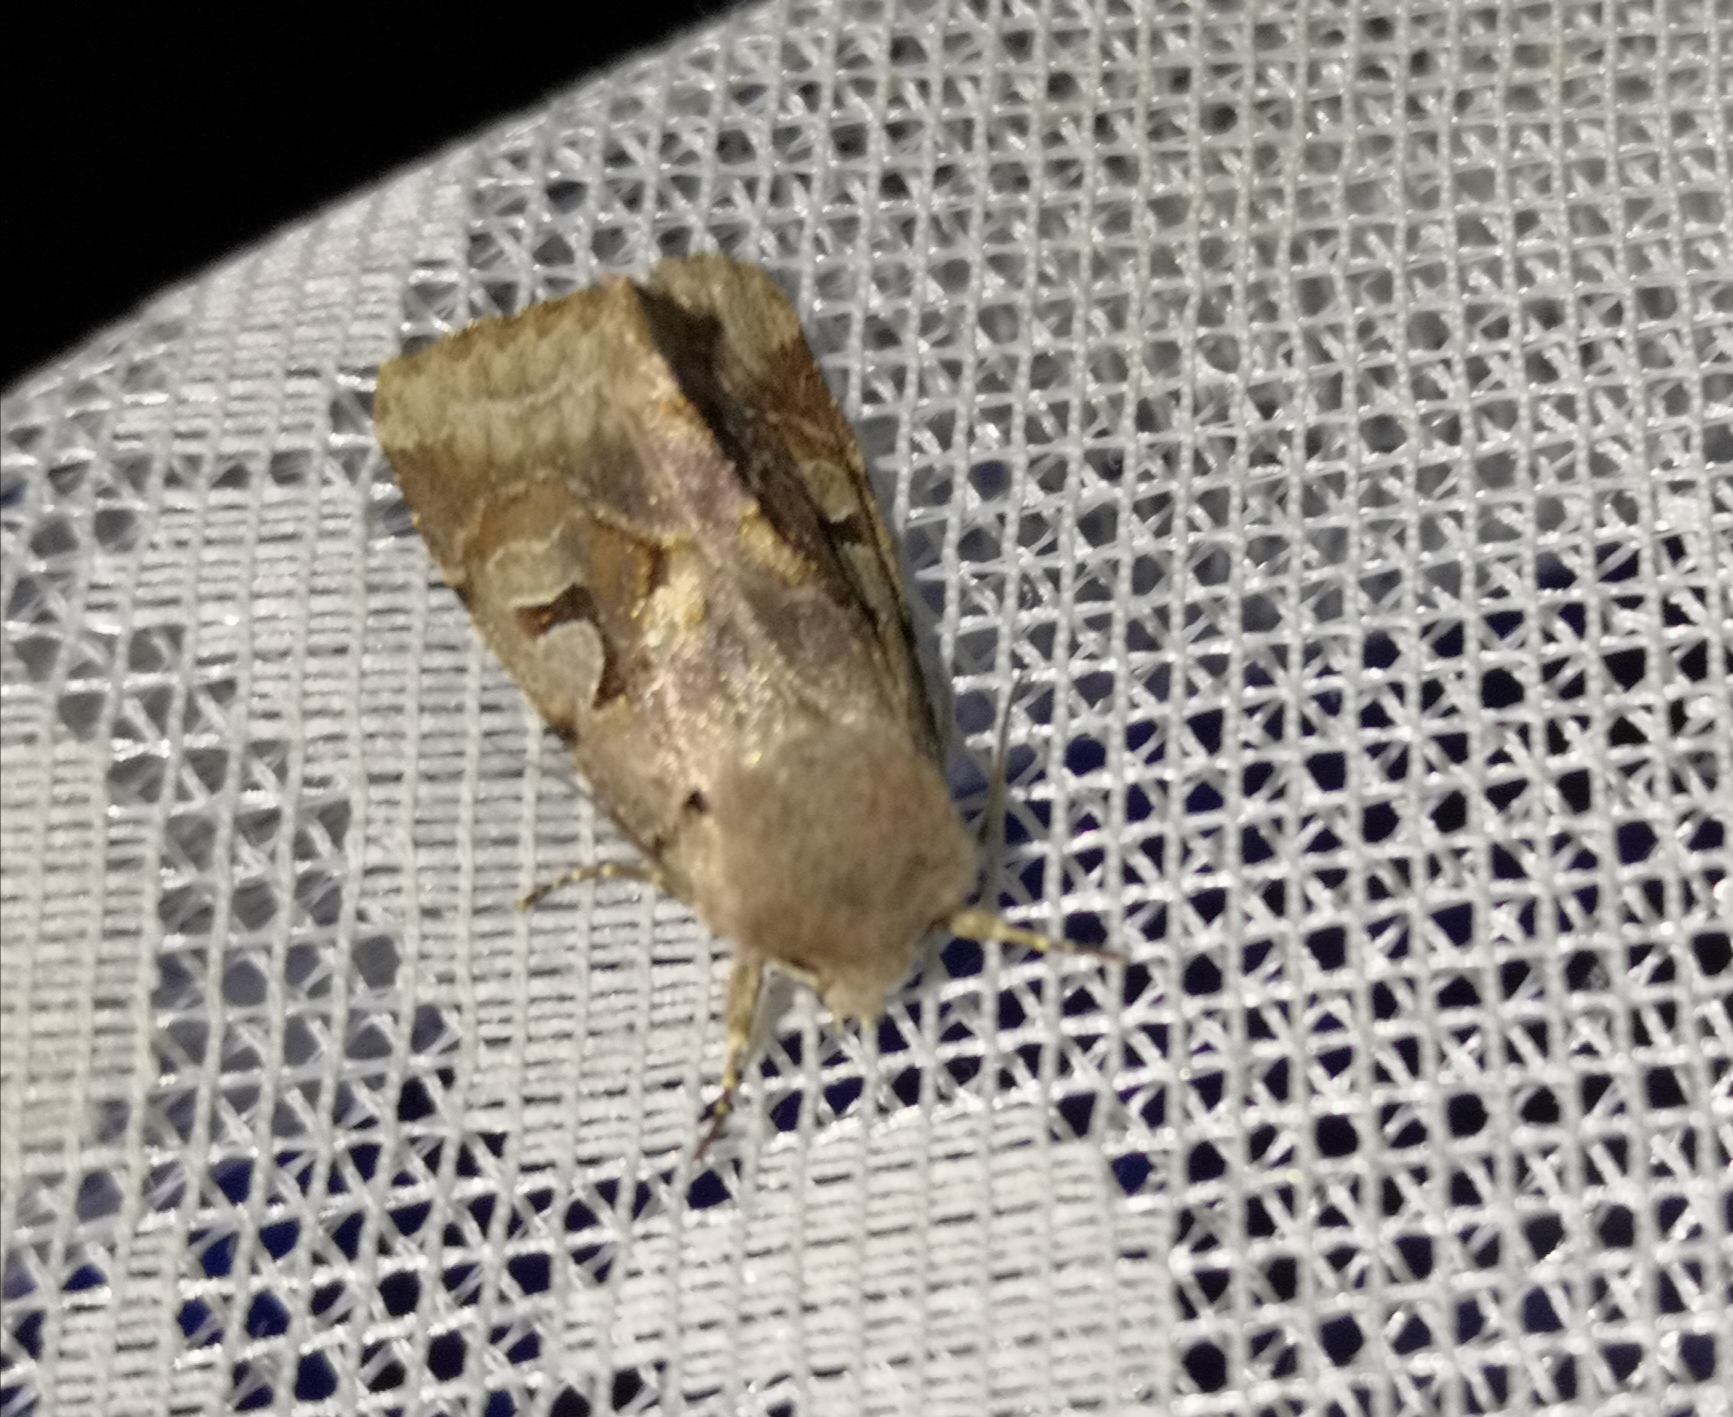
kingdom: Animalia
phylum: Arthropoda
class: Insecta
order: Lepidoptera
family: Noctuidae
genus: Orthosia
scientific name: Orthosia gothica
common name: Hebrew character
